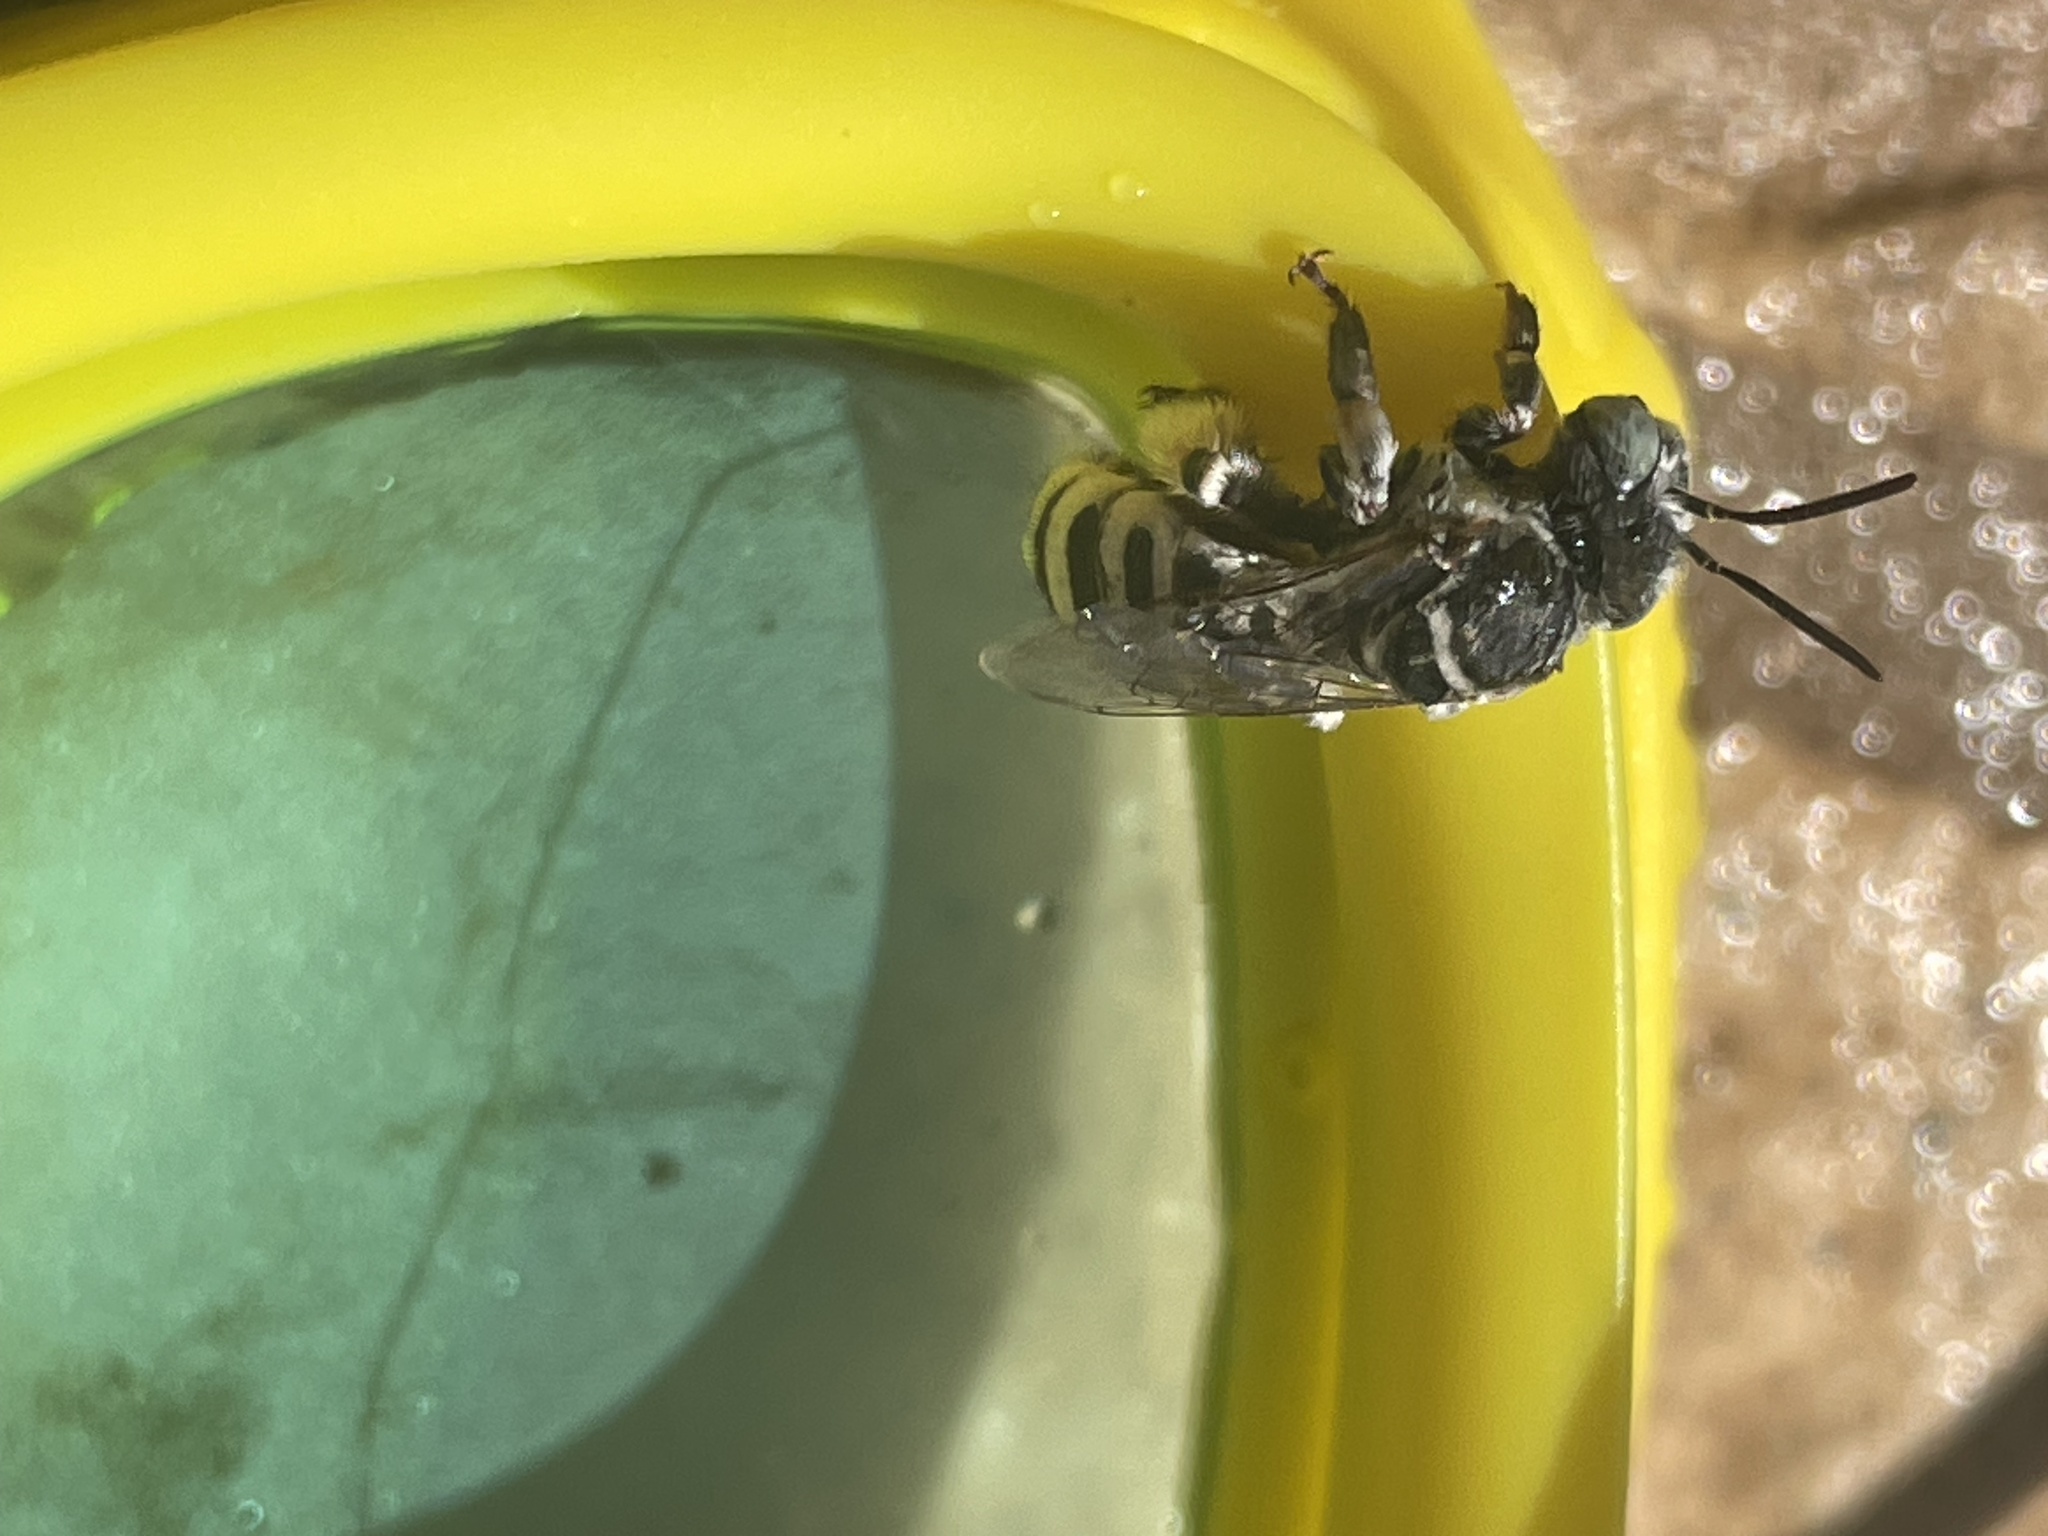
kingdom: Animalia
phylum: Arthropoda
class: Insecta
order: Hymenoptera
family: Apidae
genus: Svastra
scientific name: Svastra duplocincta
